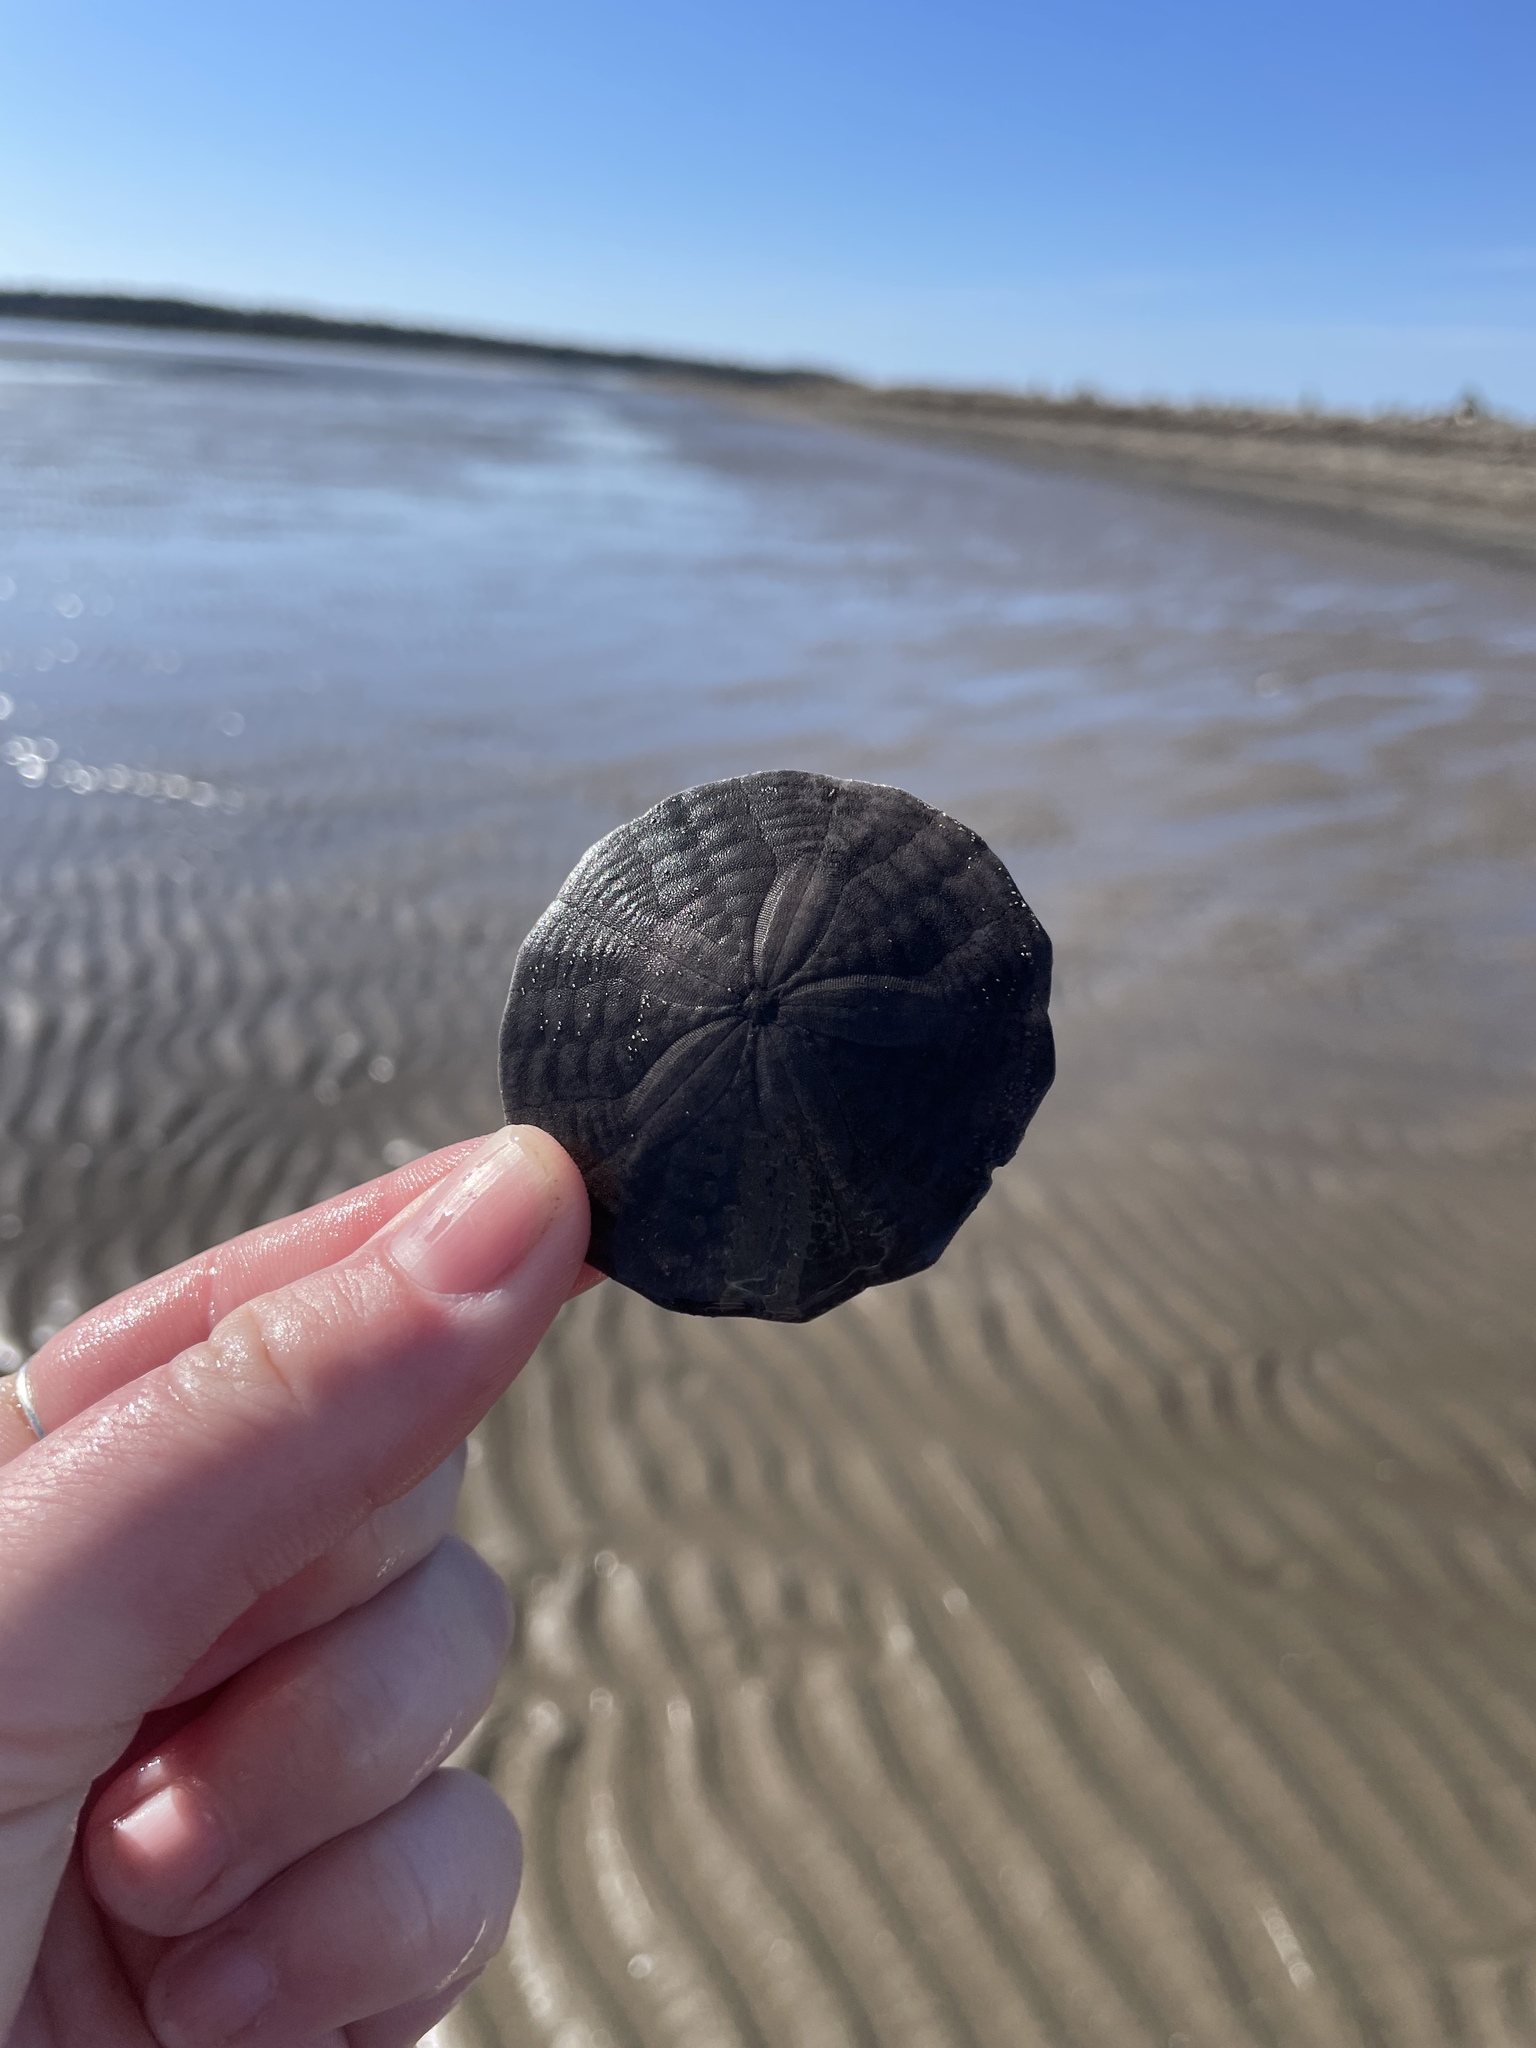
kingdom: Animalia
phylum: Echinodermata
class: Echinoidea
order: Echinolampadacea
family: Echinarachniidae
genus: Echinarachnius
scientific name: Echinarachnius parma
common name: Common sand dollar
